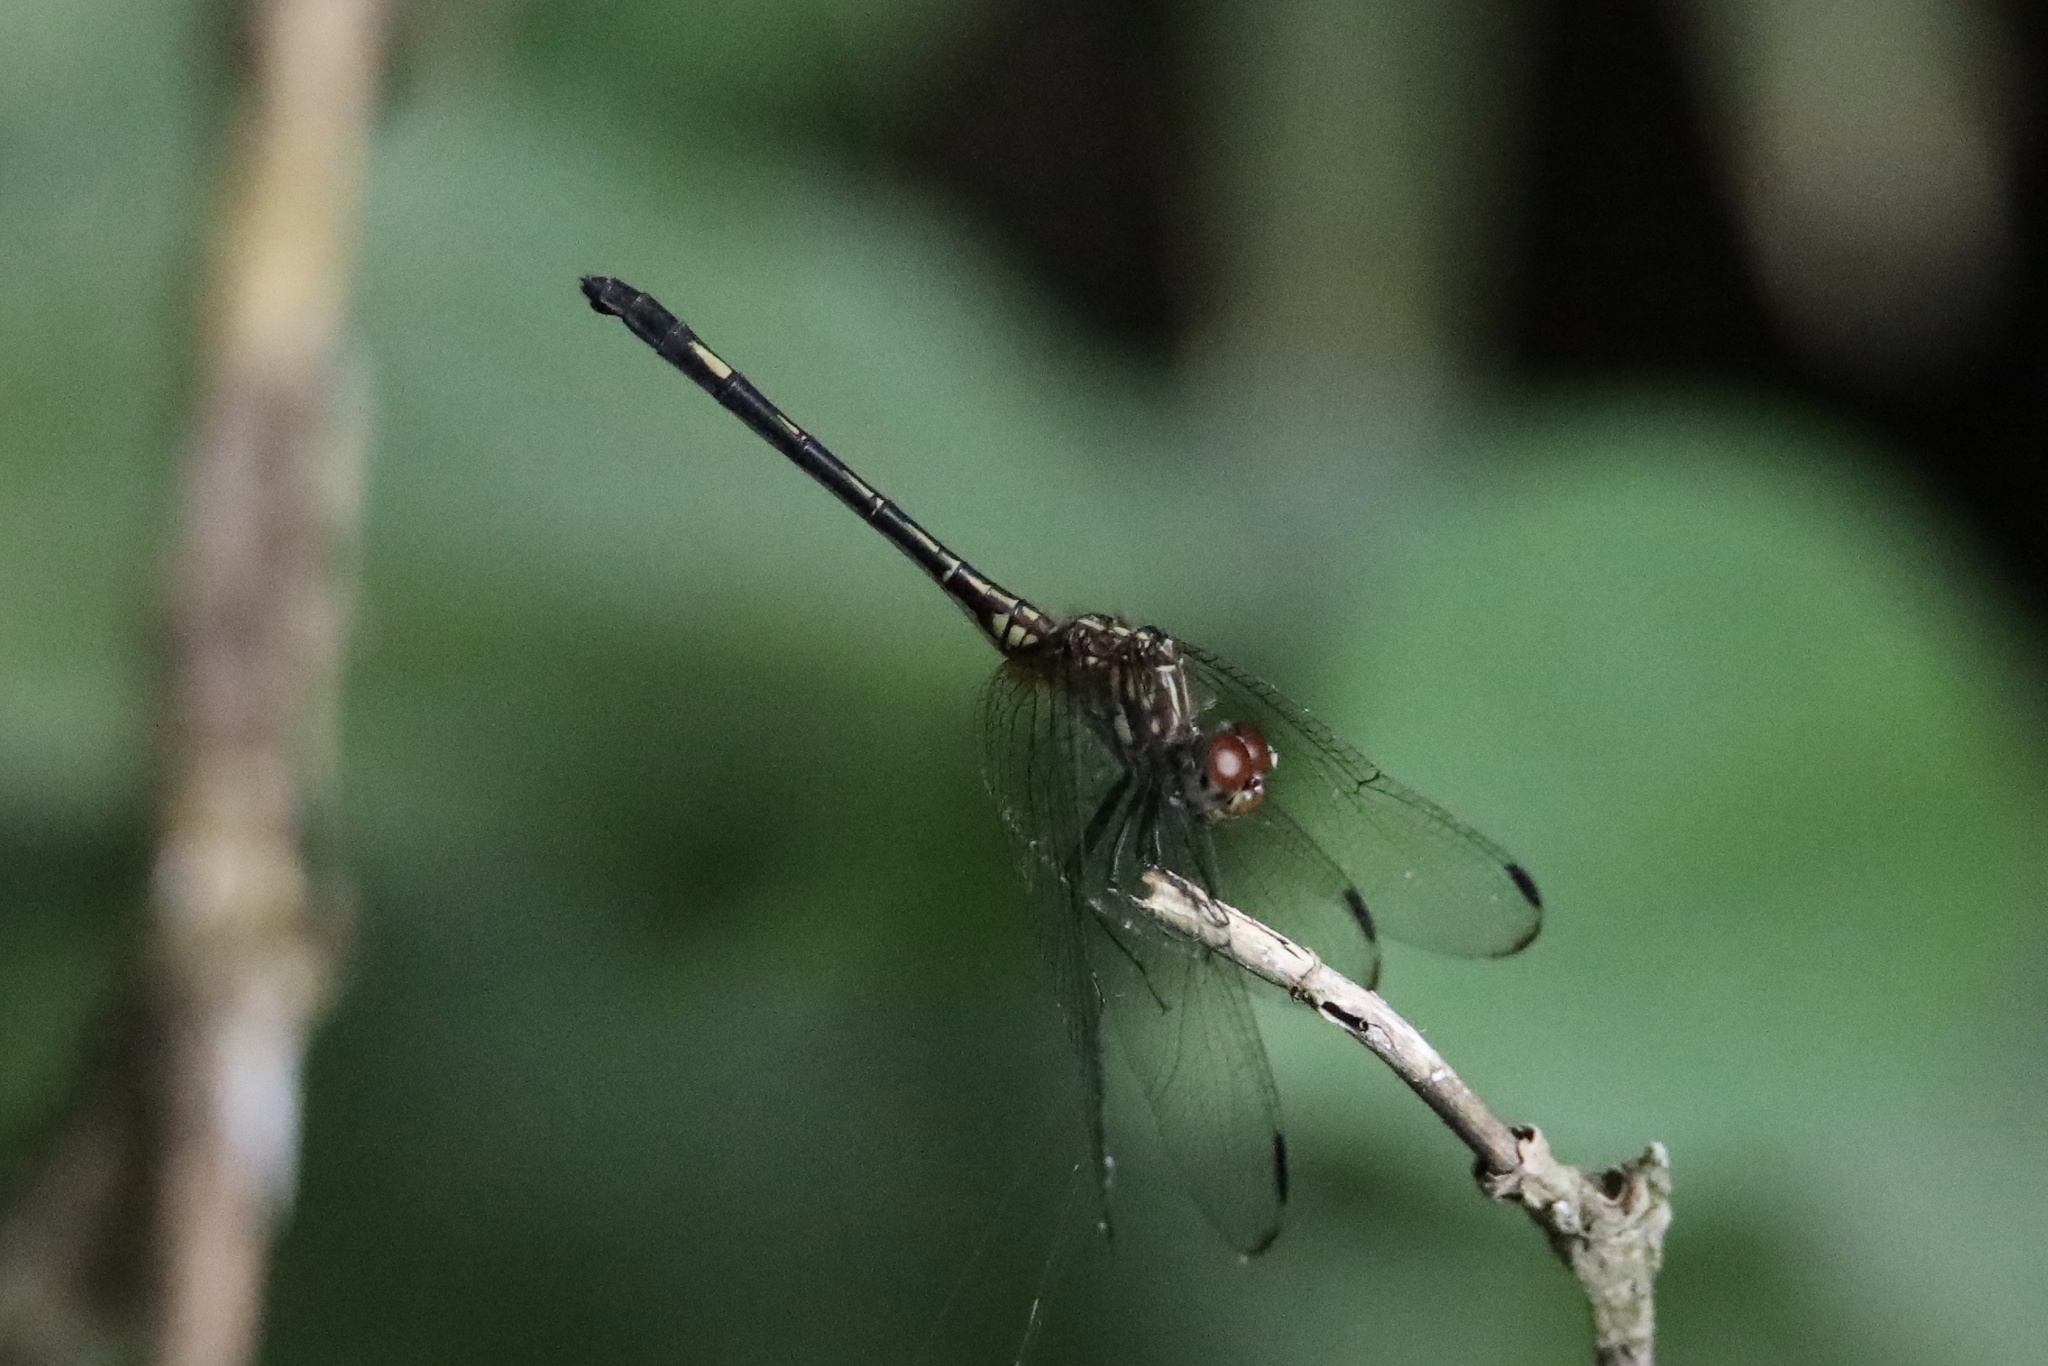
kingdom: Animalia
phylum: Arthropoda
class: Insecta
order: Odonata
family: Libellulidae
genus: Dythemis
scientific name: Dythemis sterilis
